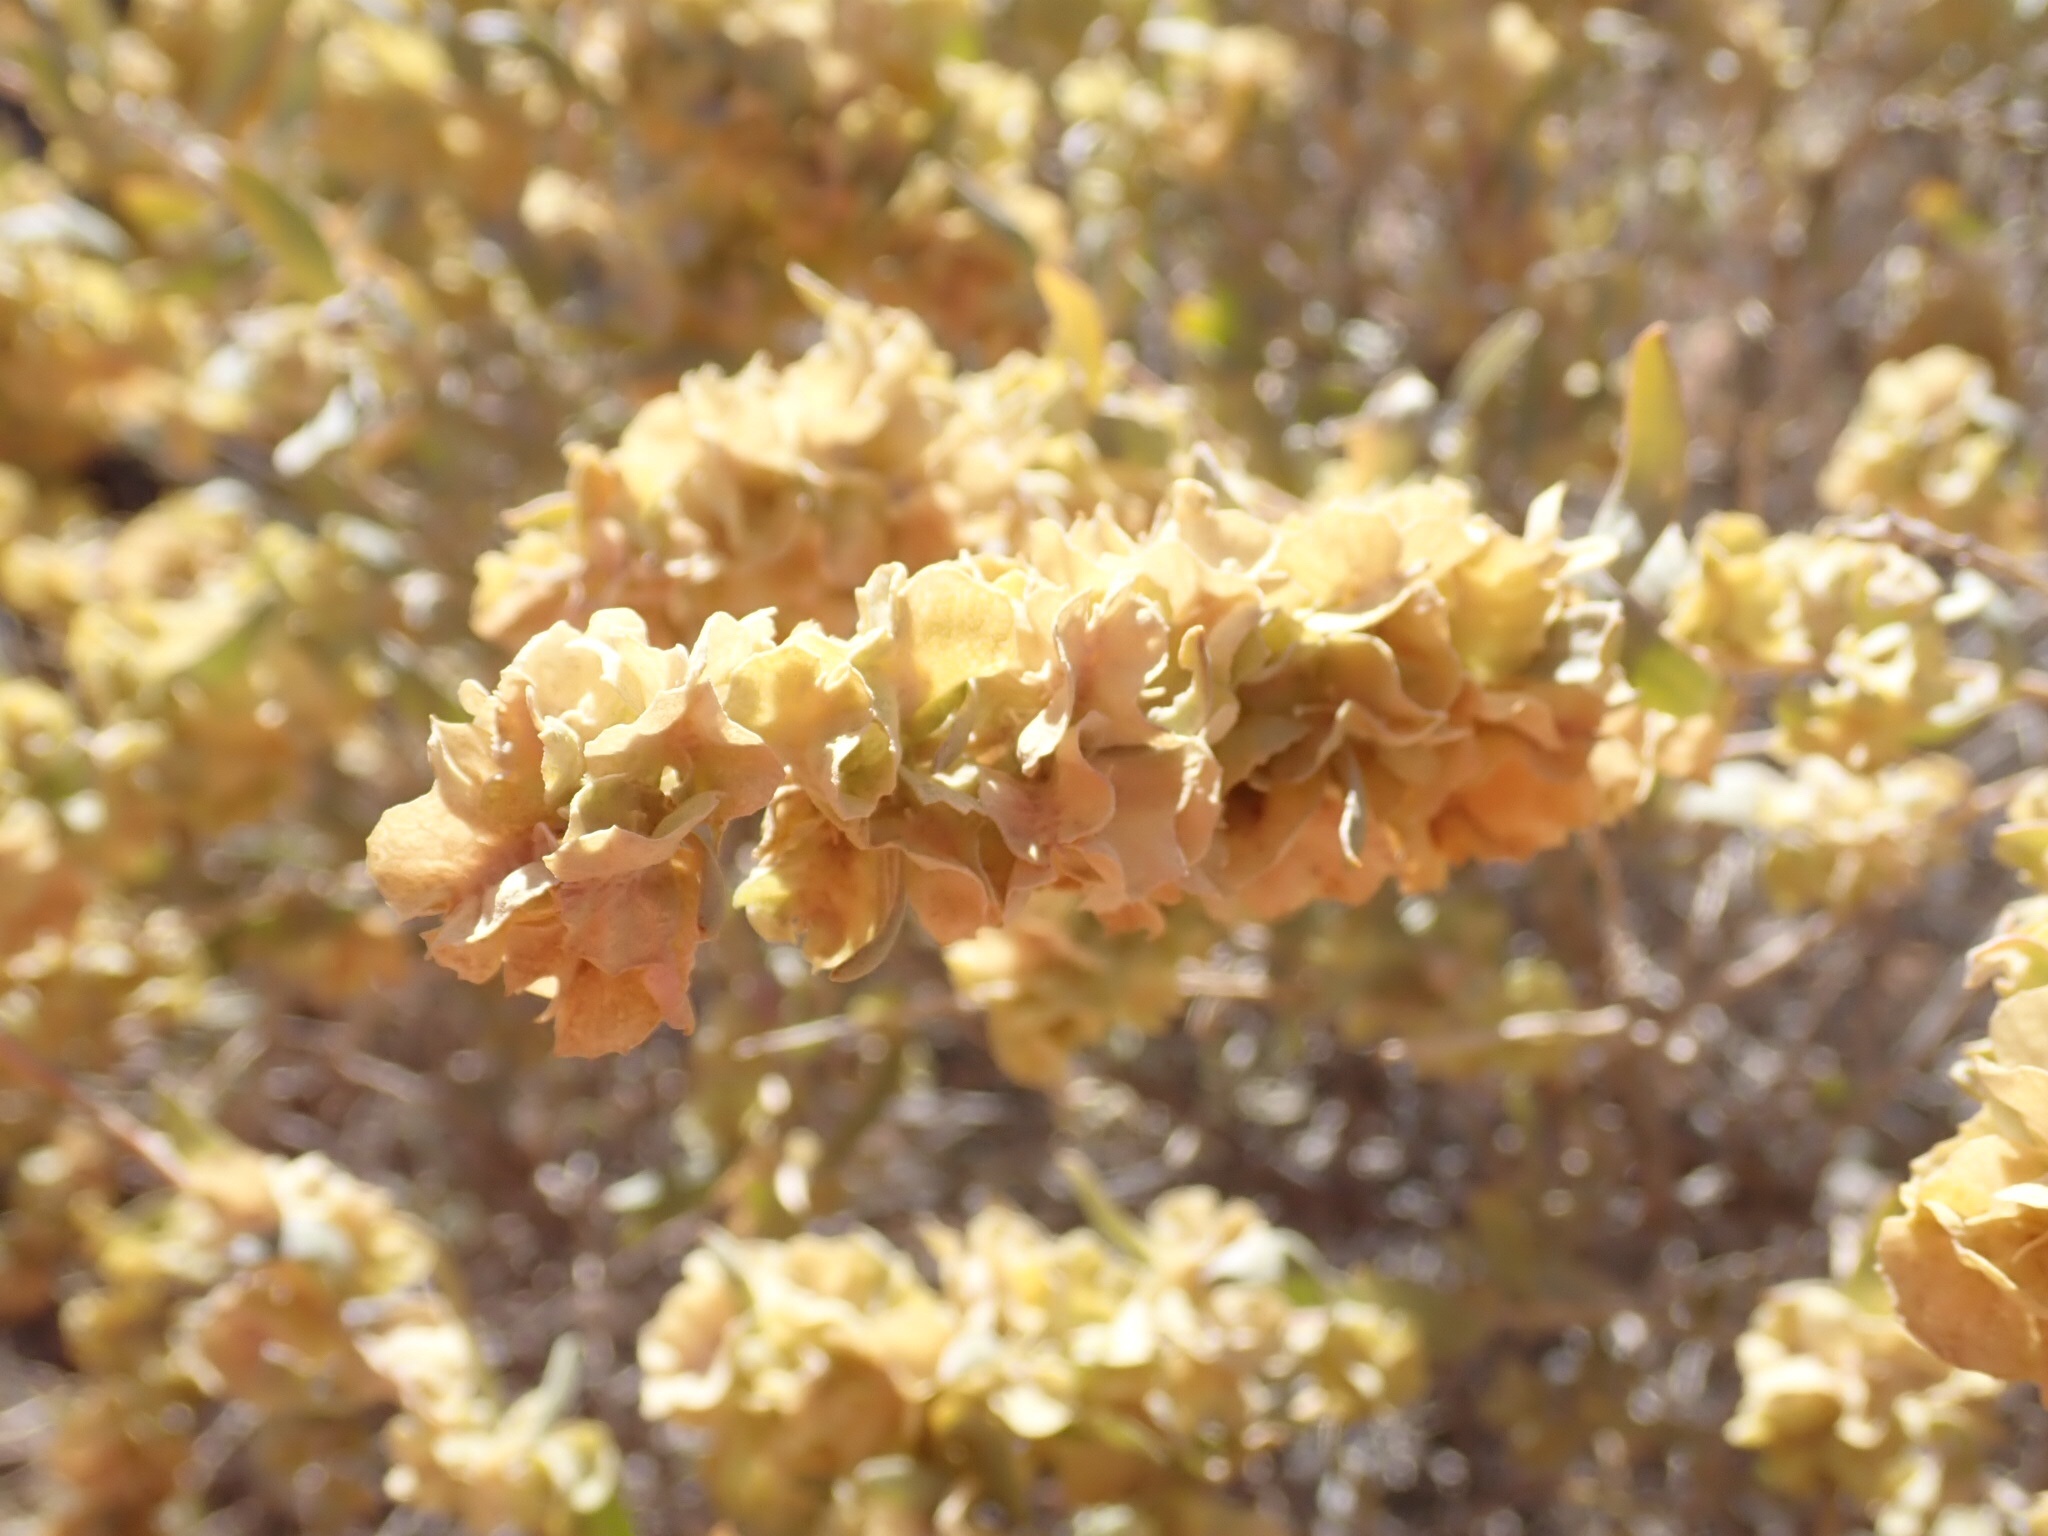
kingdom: Plantae
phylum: Tracheophyta
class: Magnoliopsida
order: Caryophyllales
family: Amaranthaceae
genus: Atriplex
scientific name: Atriplex canescens
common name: Four-wing saltbush
